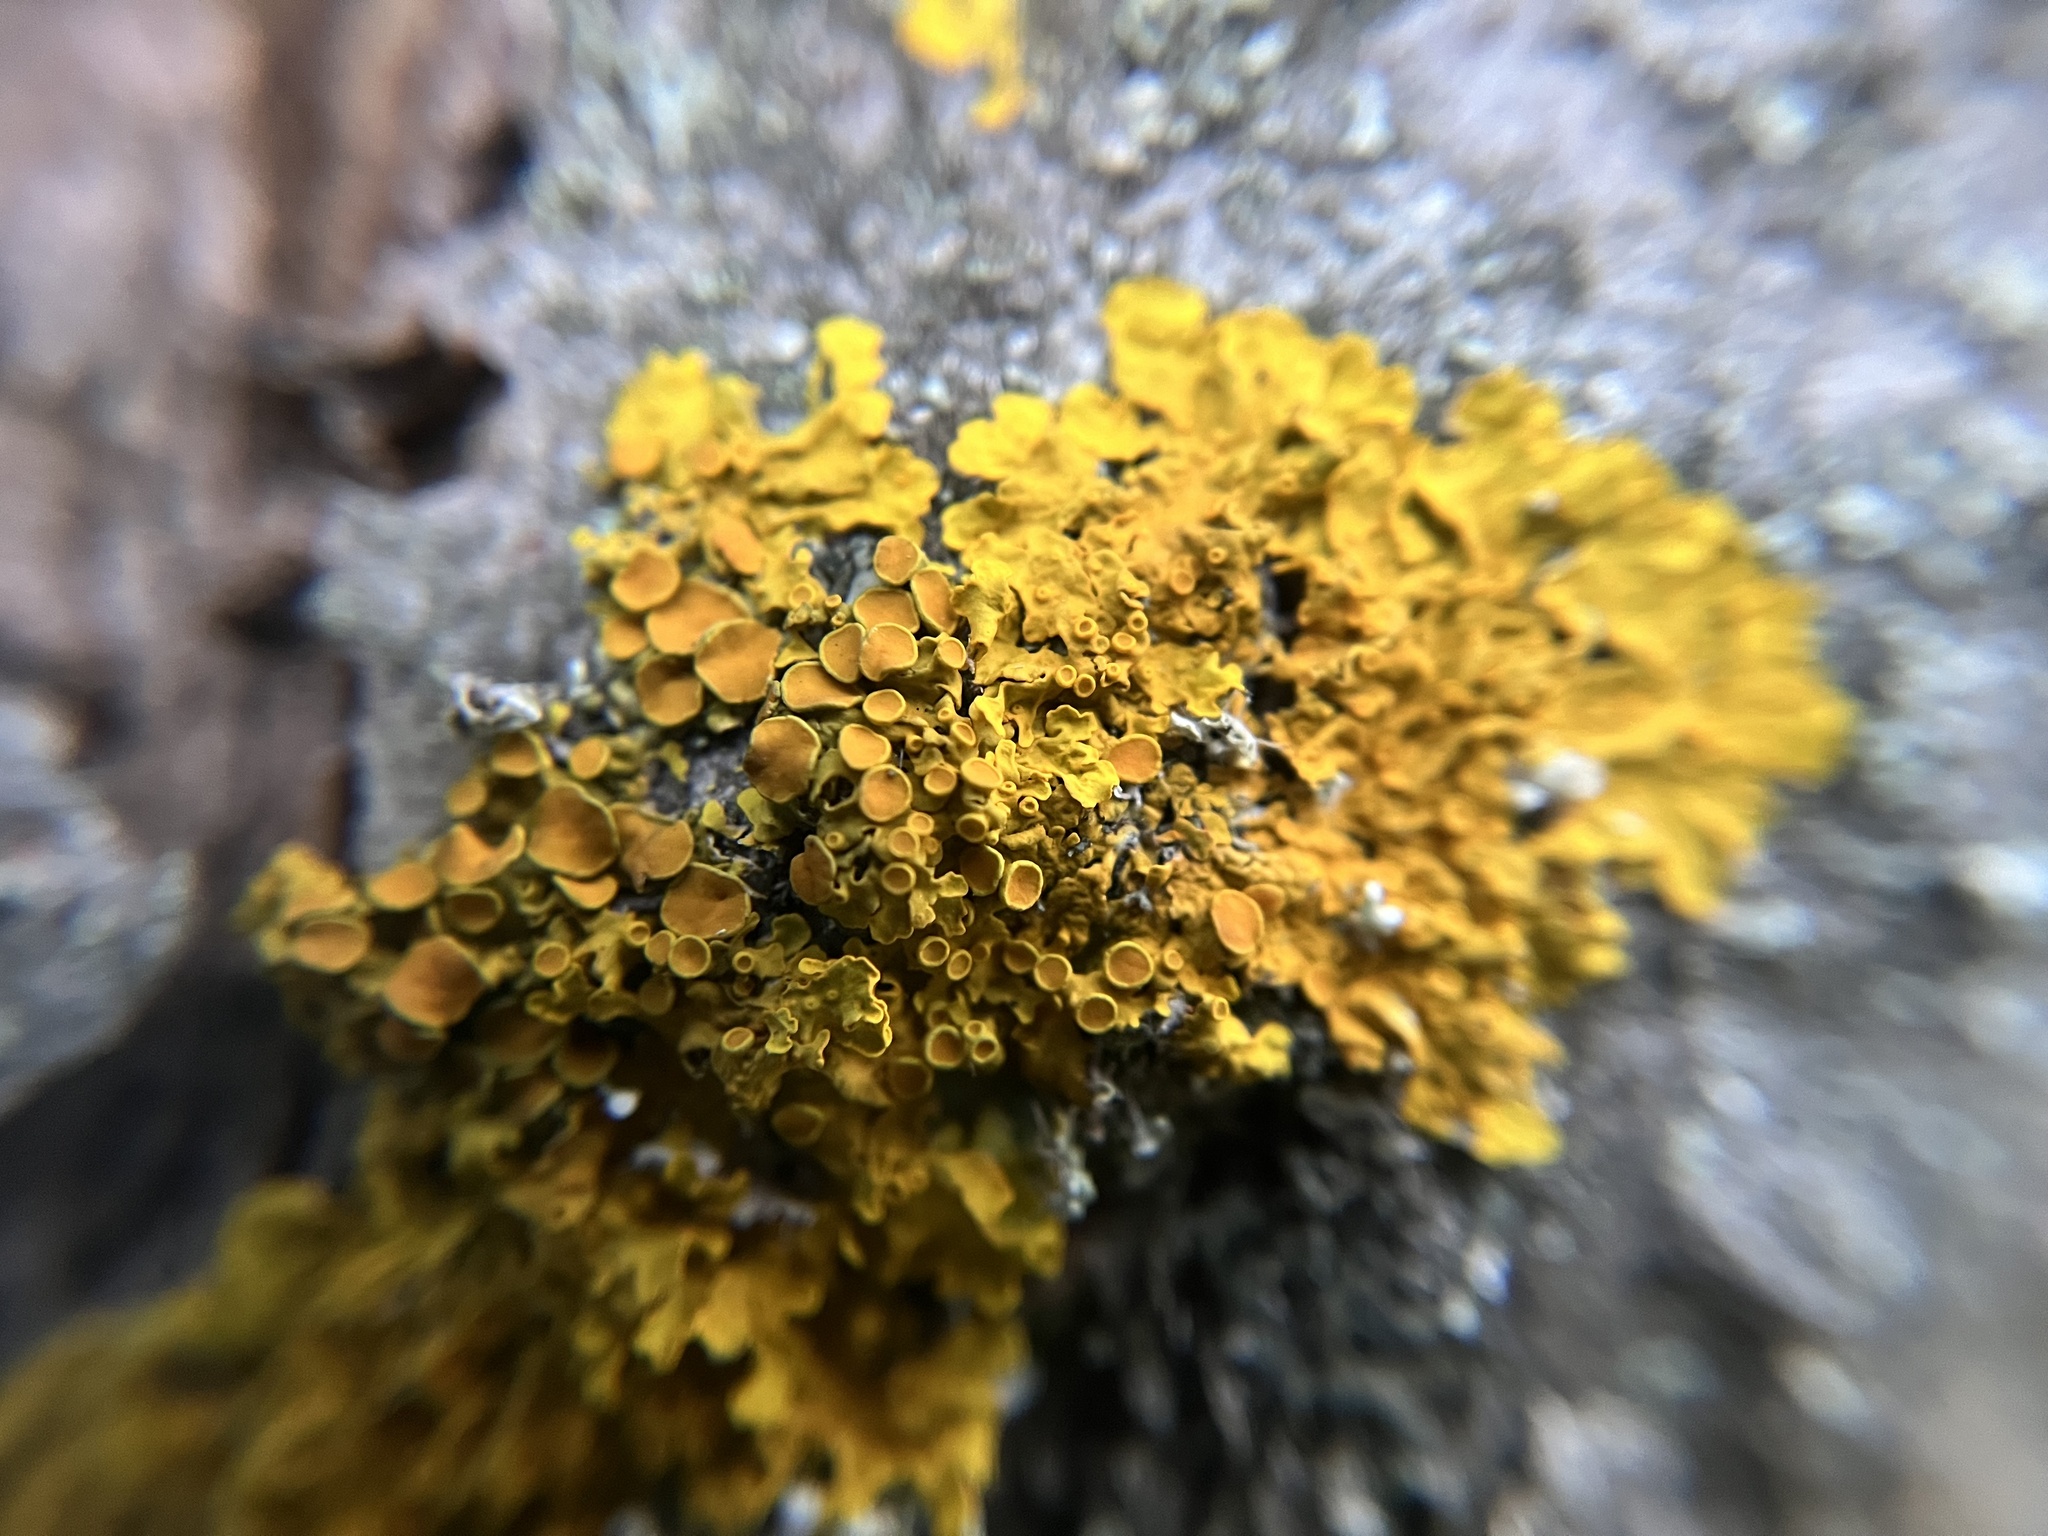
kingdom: Fungi
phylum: Ascomycota
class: Lecanoromycetes
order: Teloschistales
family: Teloschistaceae
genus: Xanthoria
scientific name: Xanthoria parietina
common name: Common orange lichen
